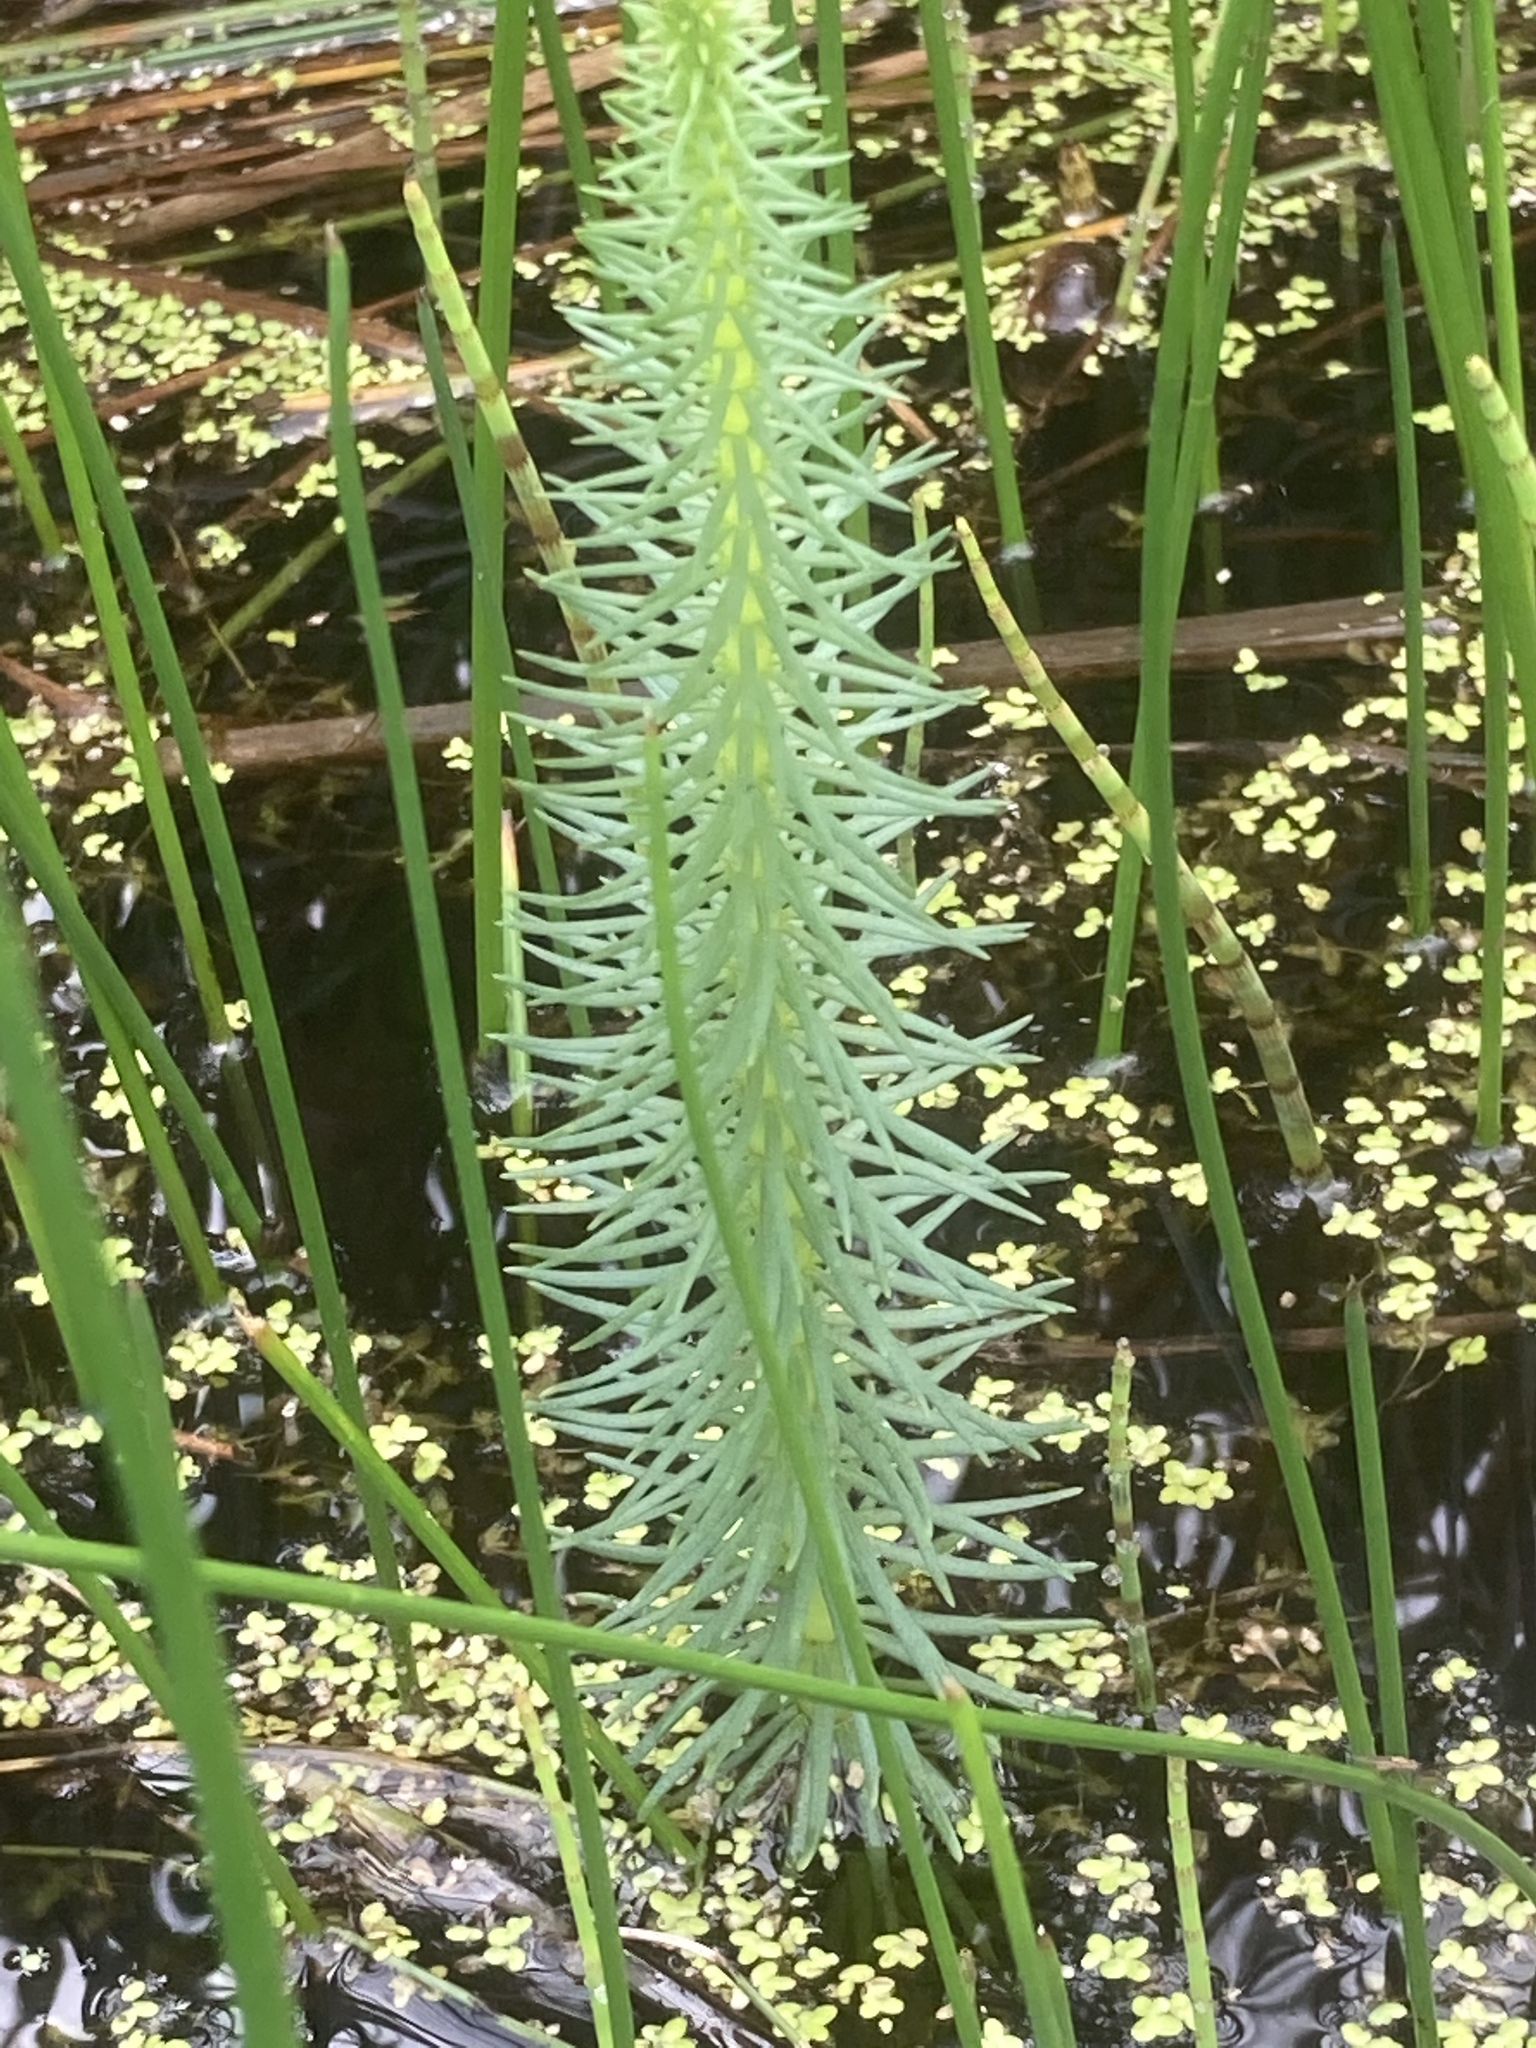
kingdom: Plantae
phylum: Tracheophyta
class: Magnoliopsida
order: Lamiales
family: Plantaginaceae
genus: Hippuris
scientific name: Hippuris vulgaris
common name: Mare's-tail
